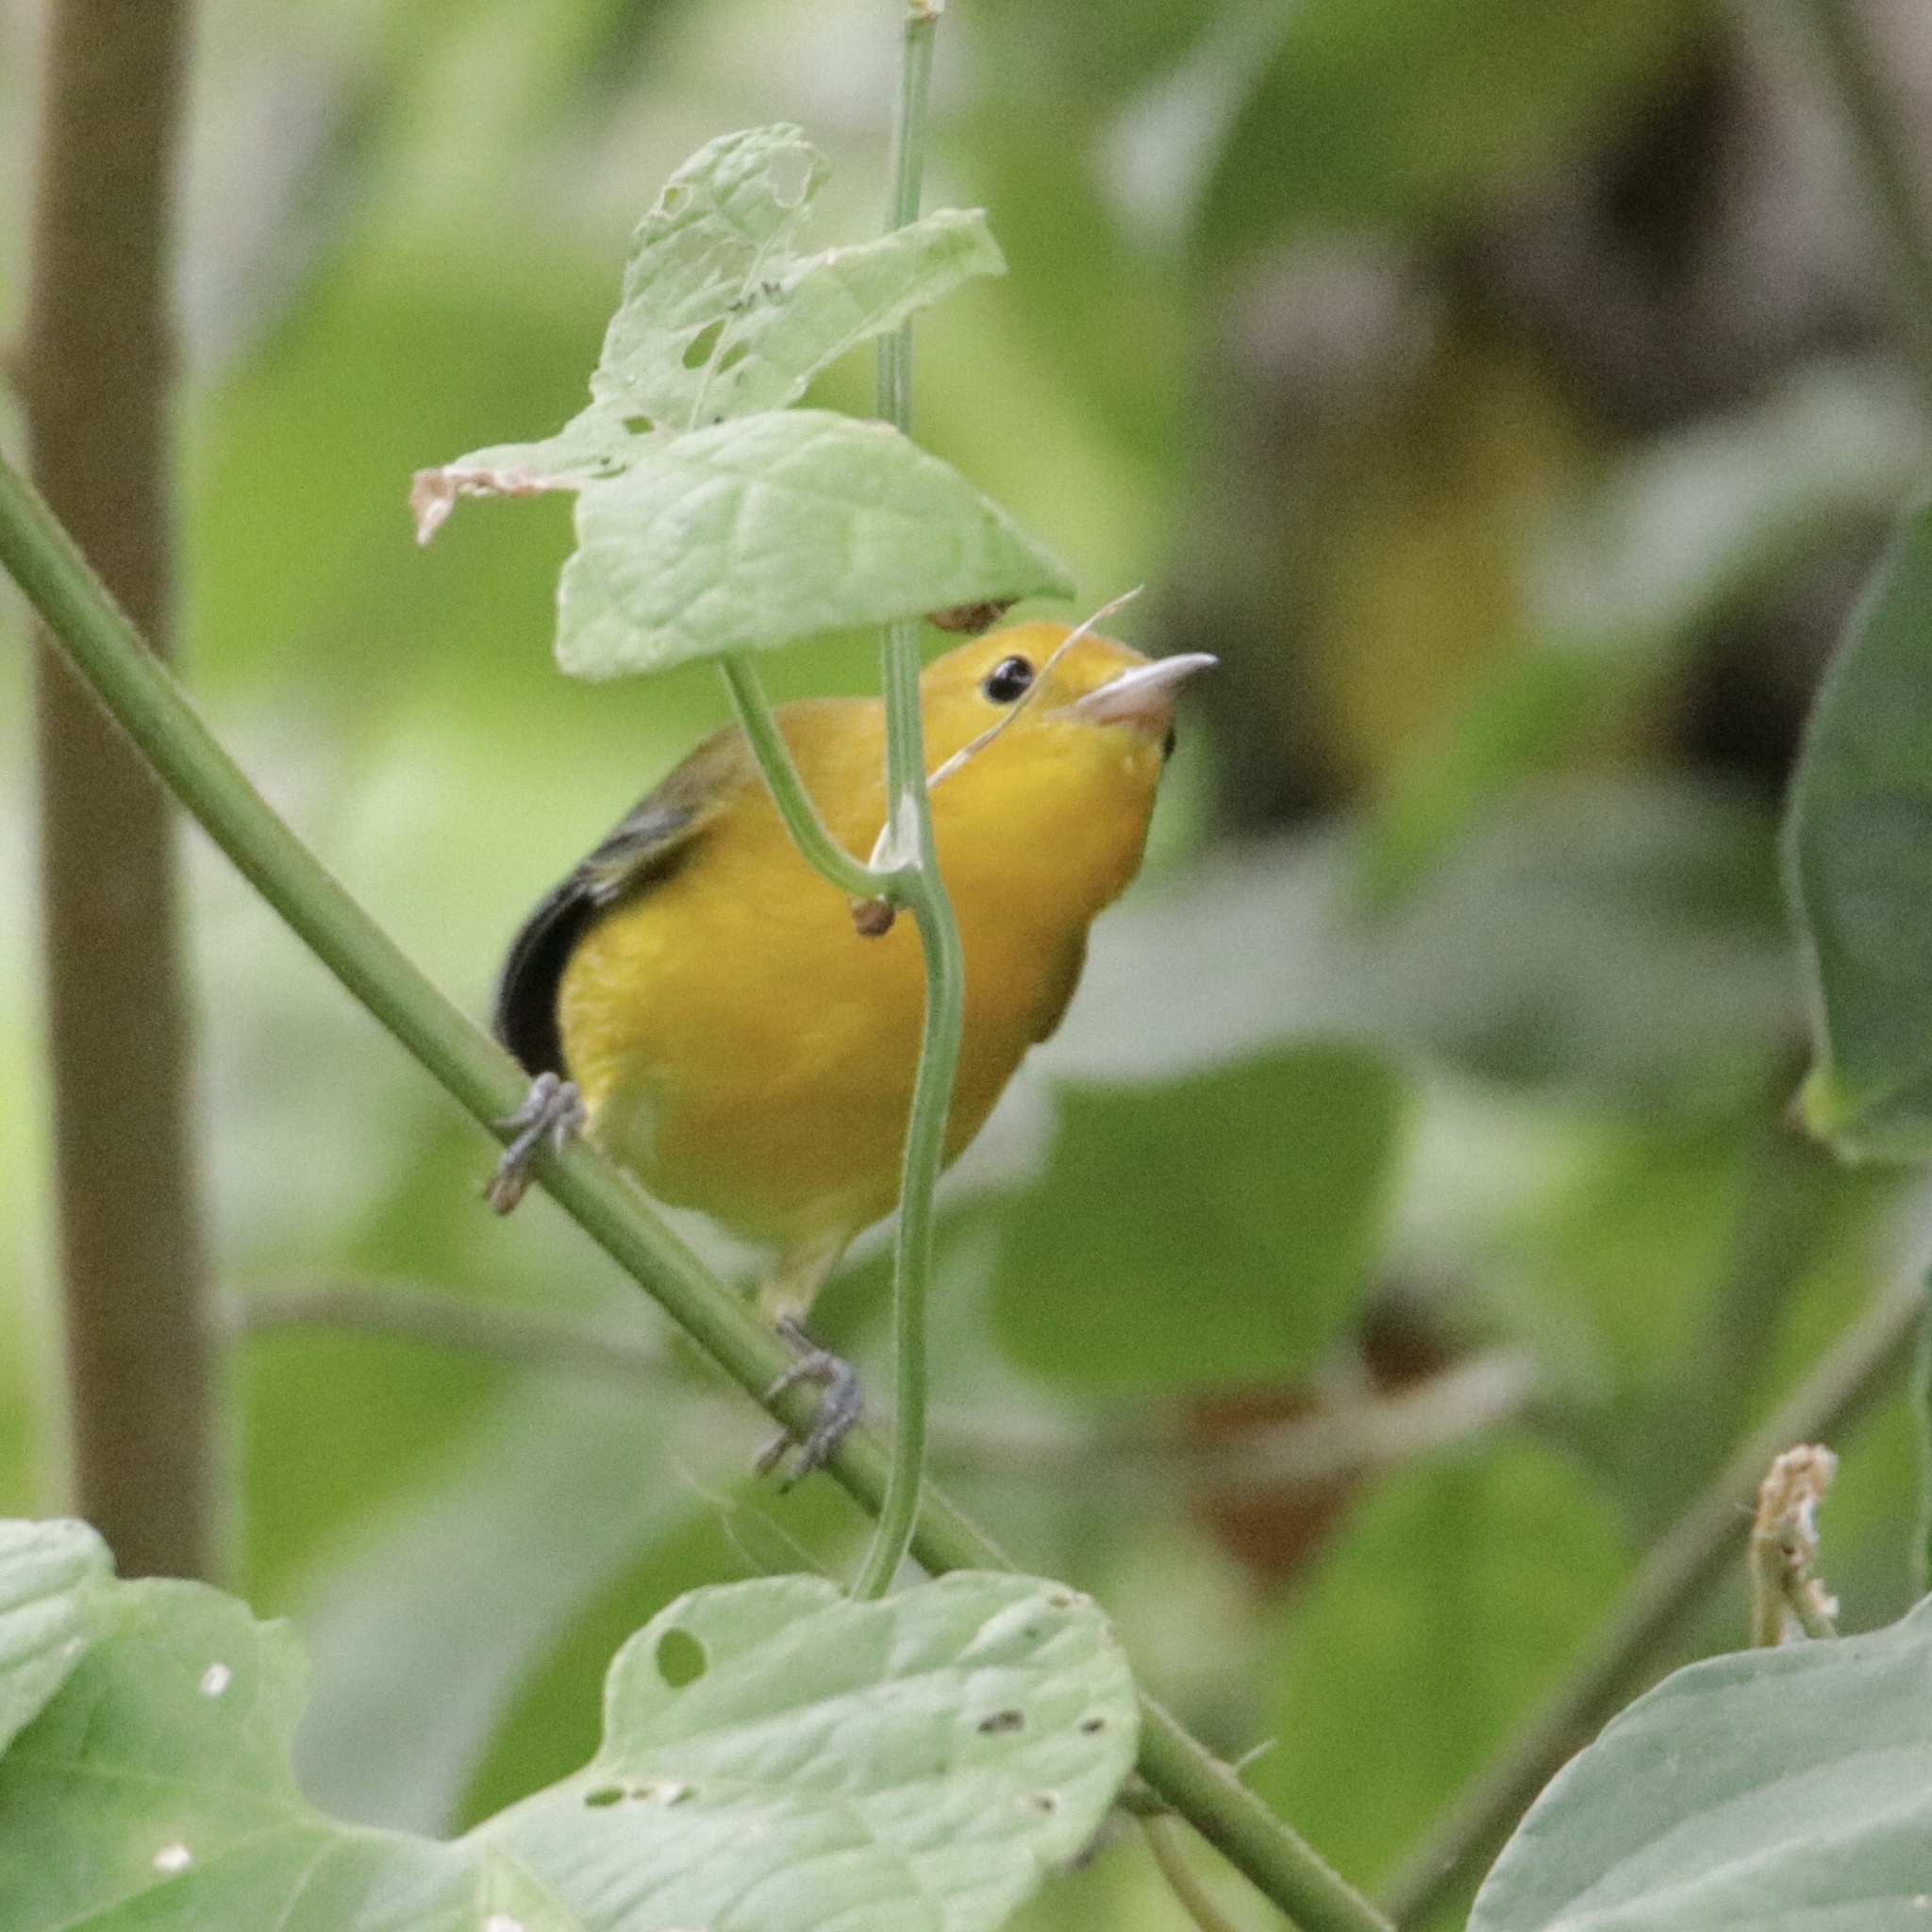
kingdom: Animalia
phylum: Chordata
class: Aves
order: Passeriformes
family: Parulidae
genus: Protonotaria
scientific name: Protonotaria citrea
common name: Prothonotary warbler
